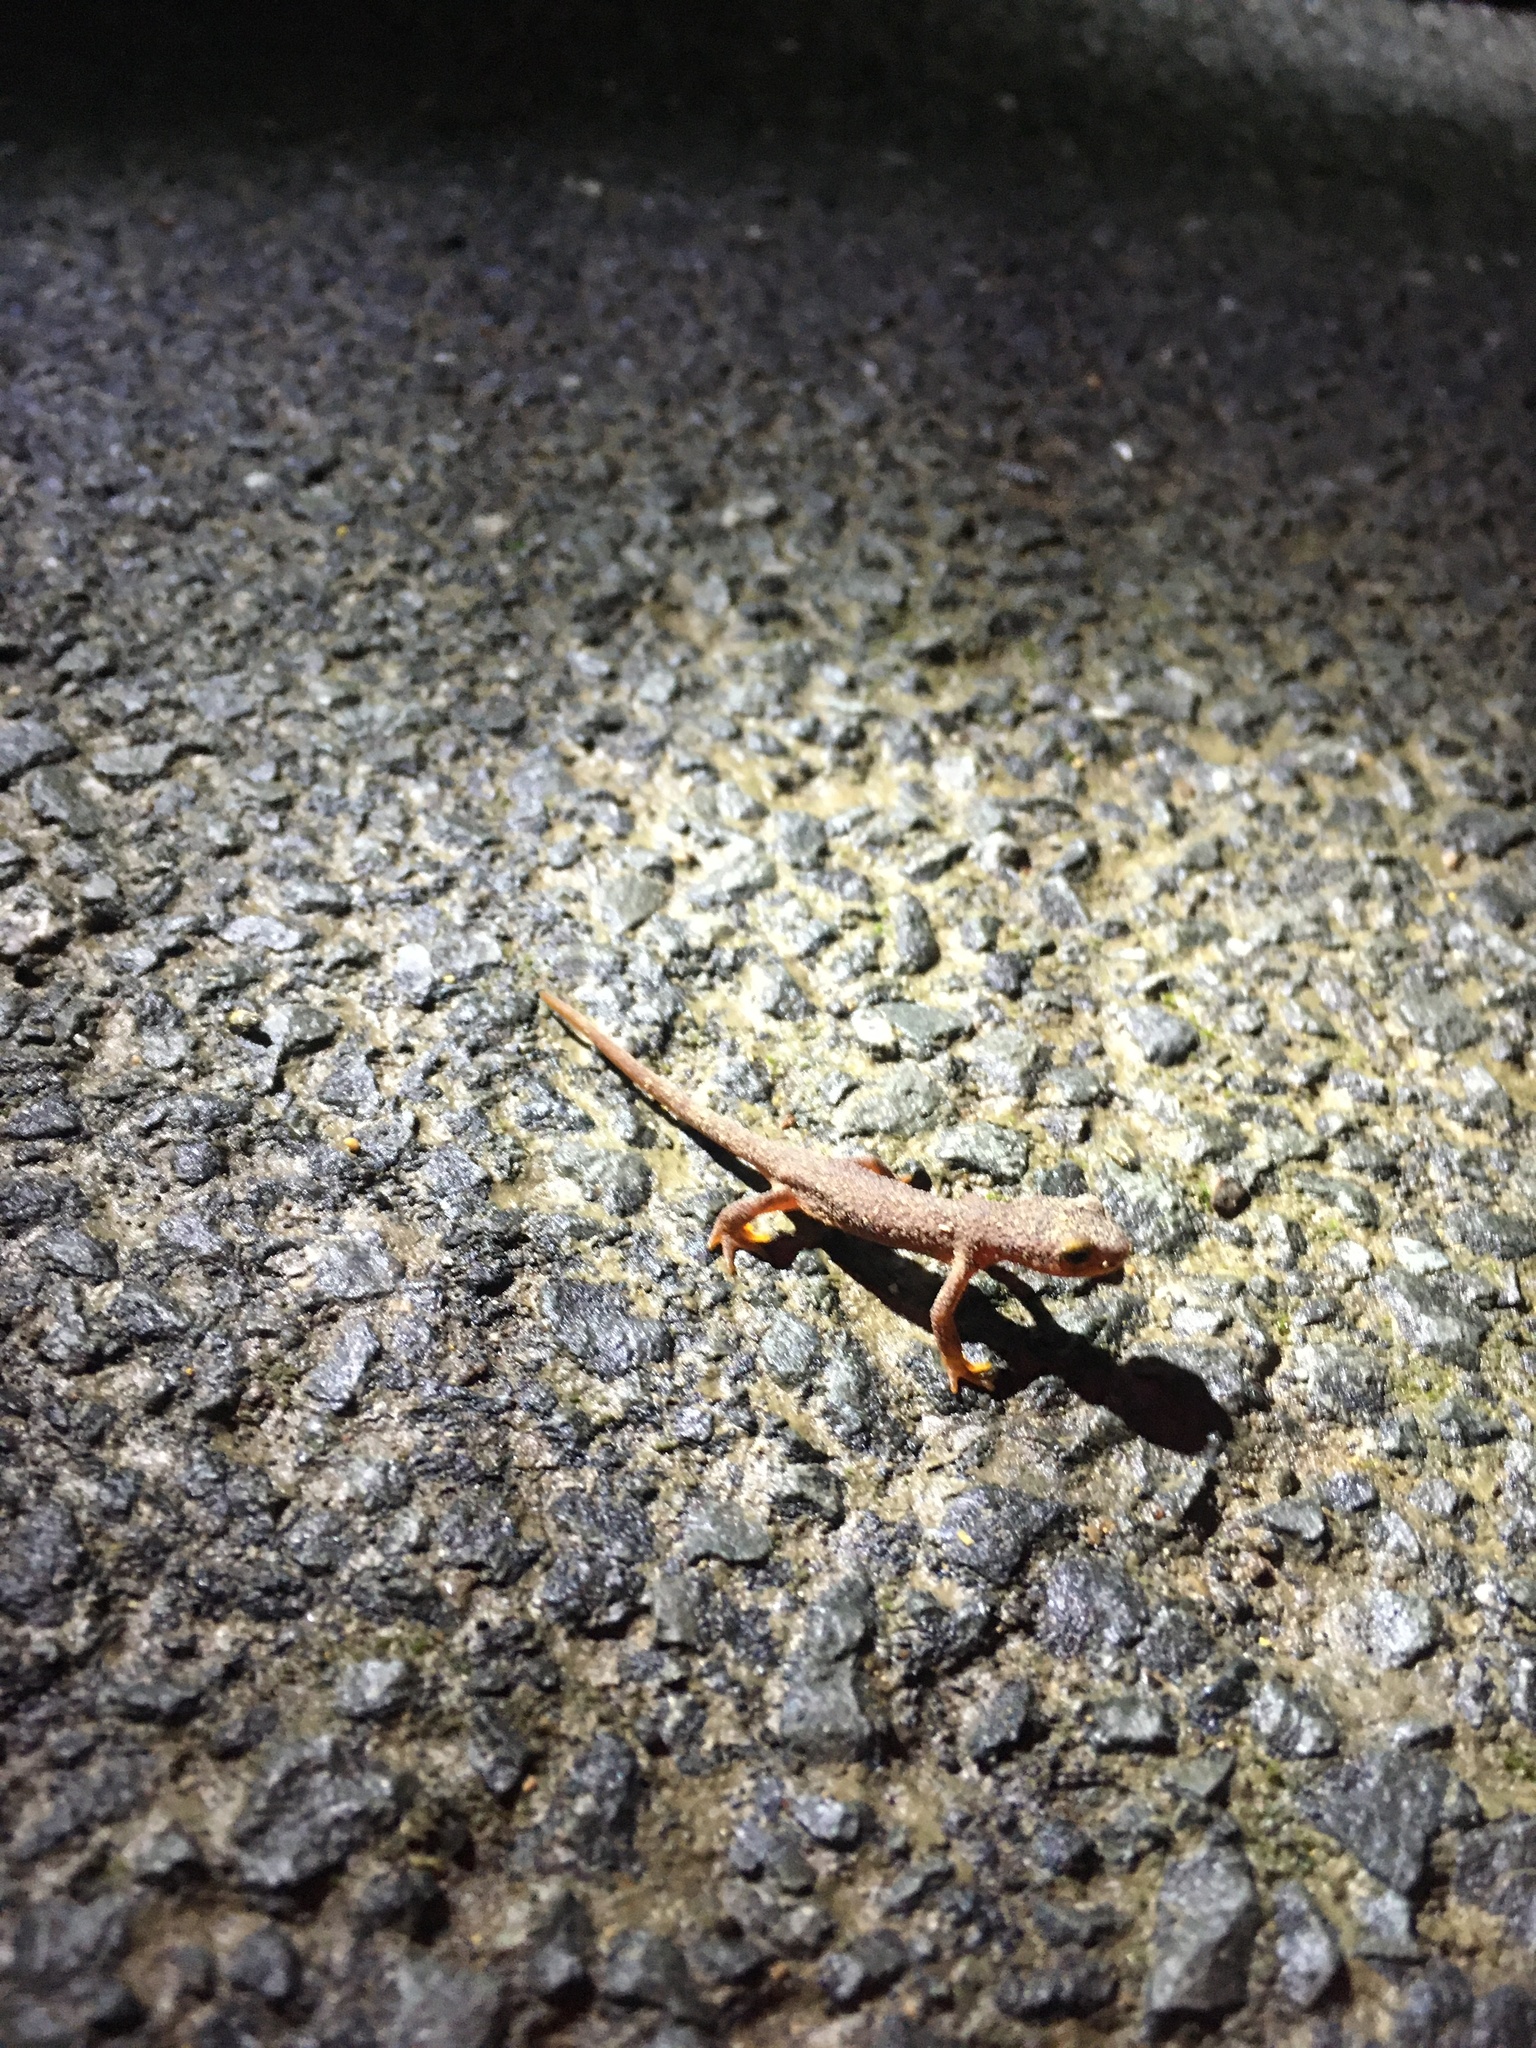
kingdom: Animalia
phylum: Chordata
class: Amphibia
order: Caudata
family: Salamandridae
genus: Taricha
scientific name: Taricha torosa
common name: California newt
